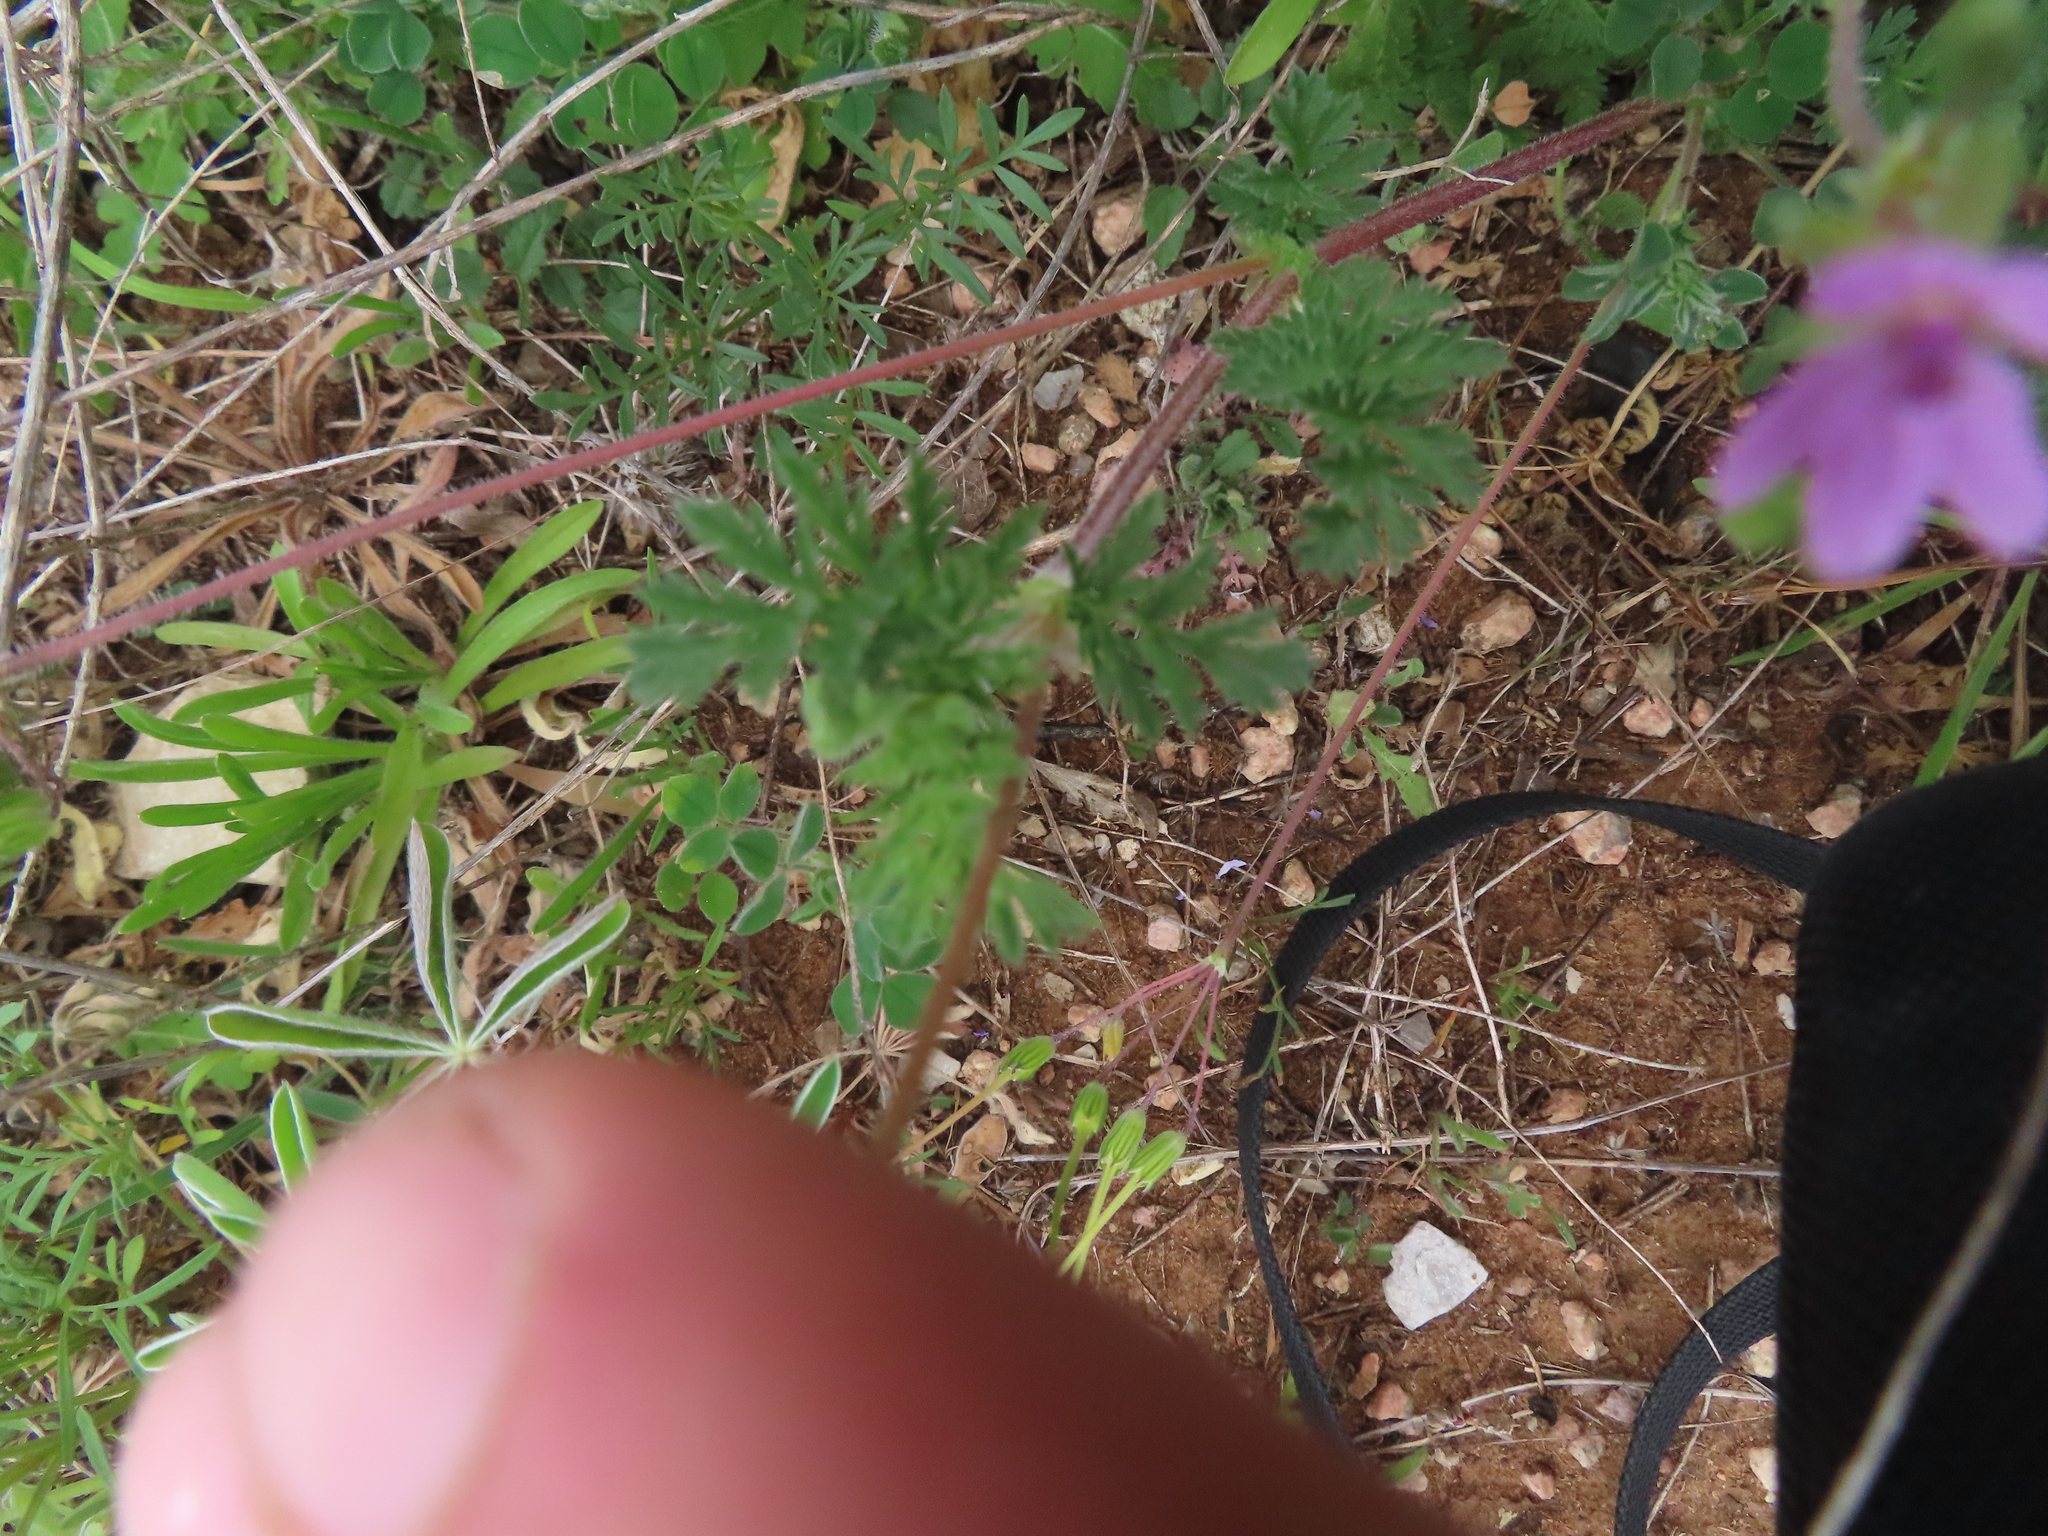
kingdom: Plantae
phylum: Tracheophyta
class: Magnoliopsida
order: Geraniales
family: Geraniaceae
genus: Erodium
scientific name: Erodium cicutarium
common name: Common stork's-bill
